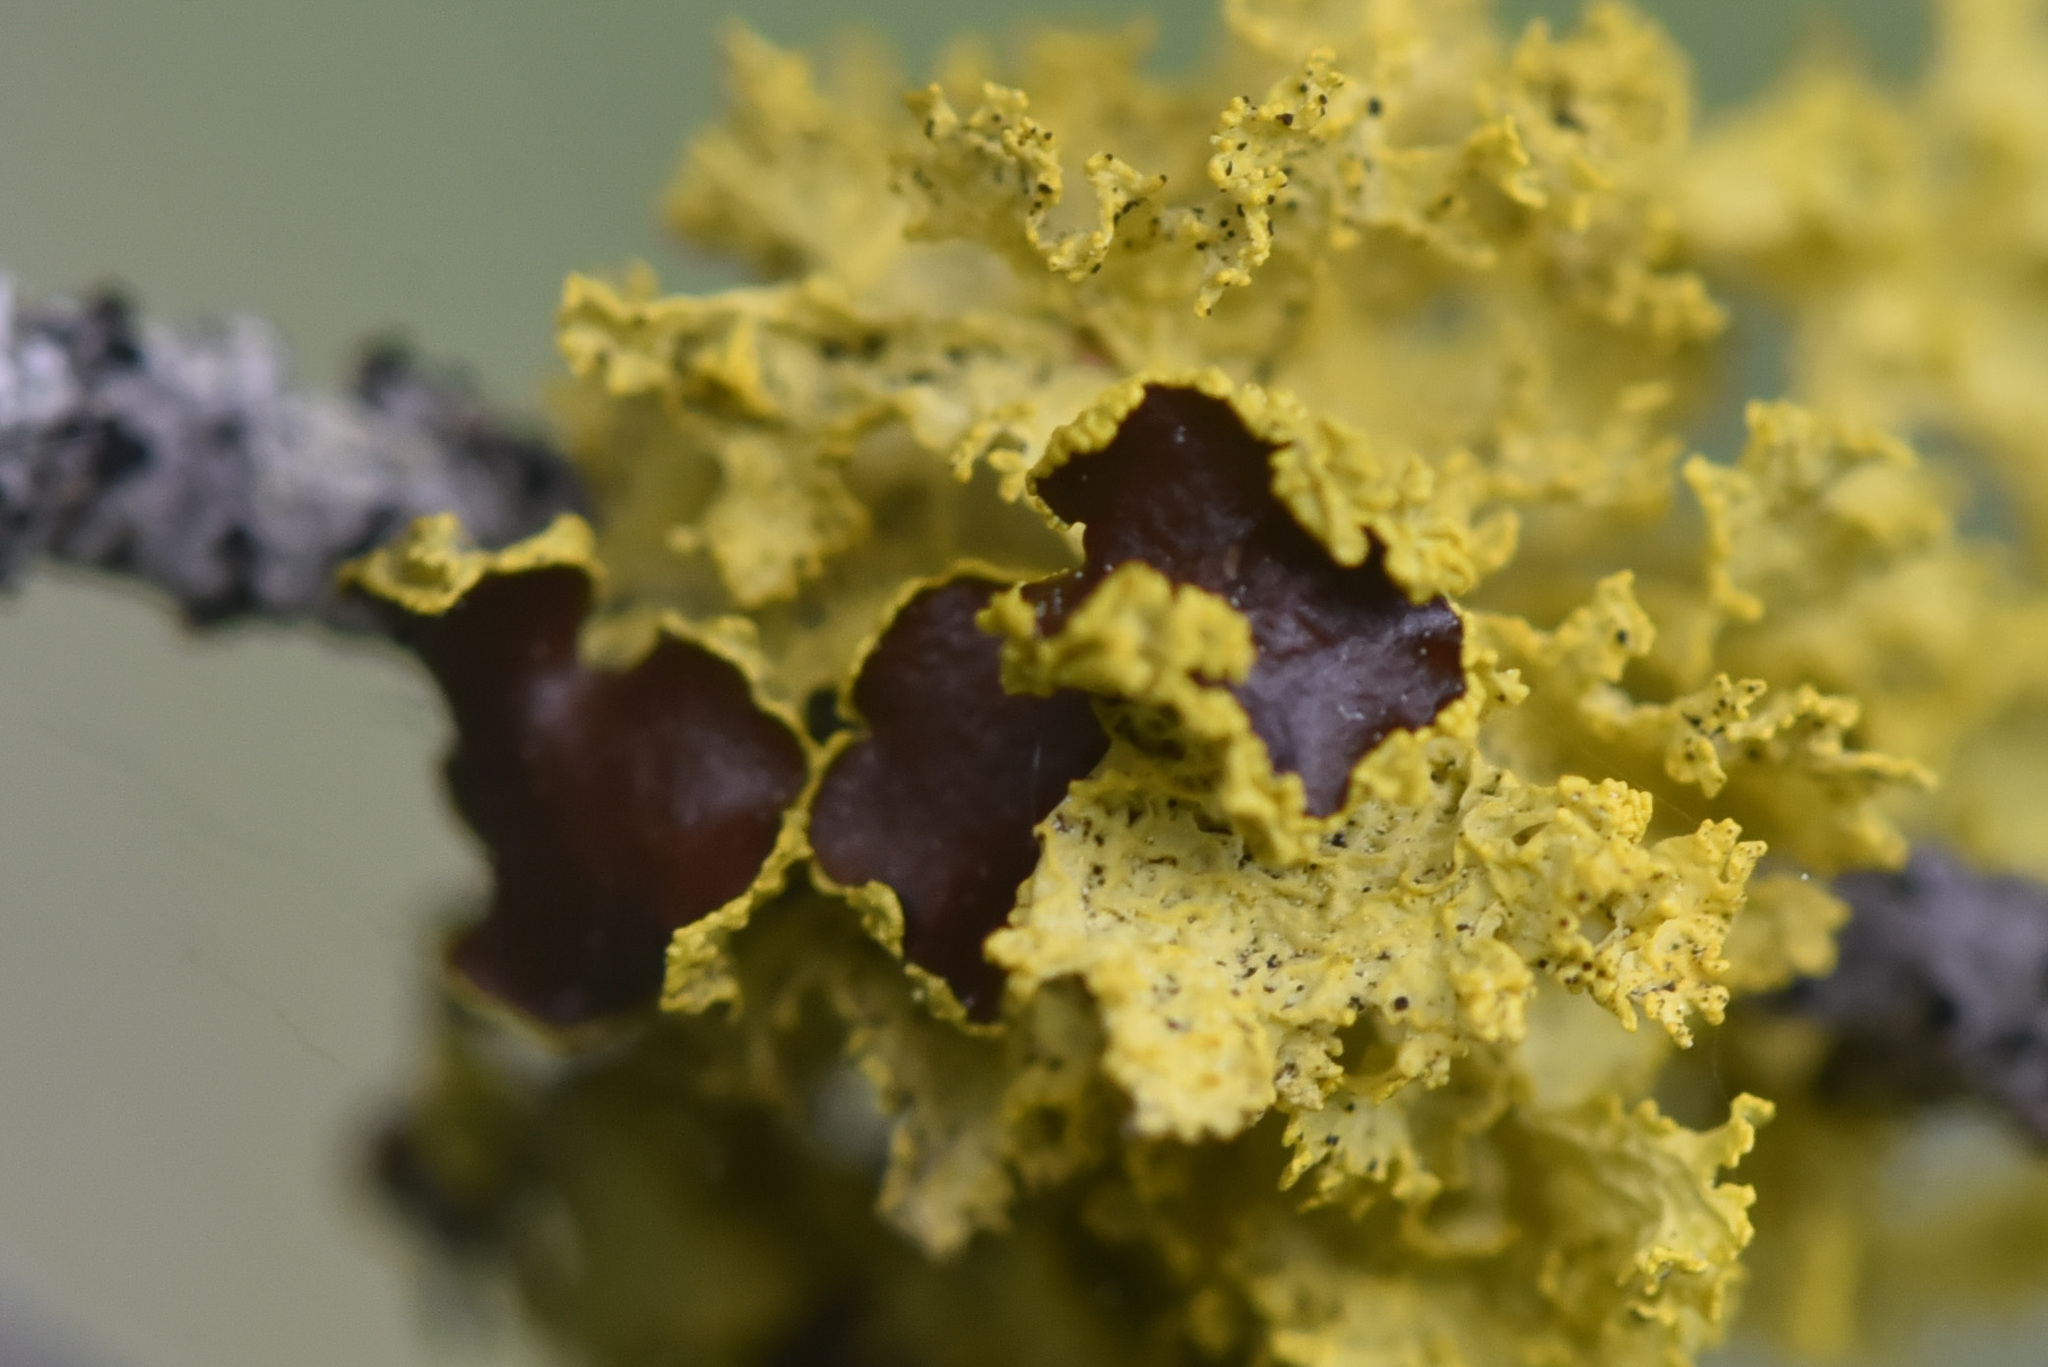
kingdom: Fungi
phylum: Ascomycota
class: Lecanoromycetes
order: Lecanorales
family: Parmeliaceae
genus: Vulpicida
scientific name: Vulpicida canadensis
